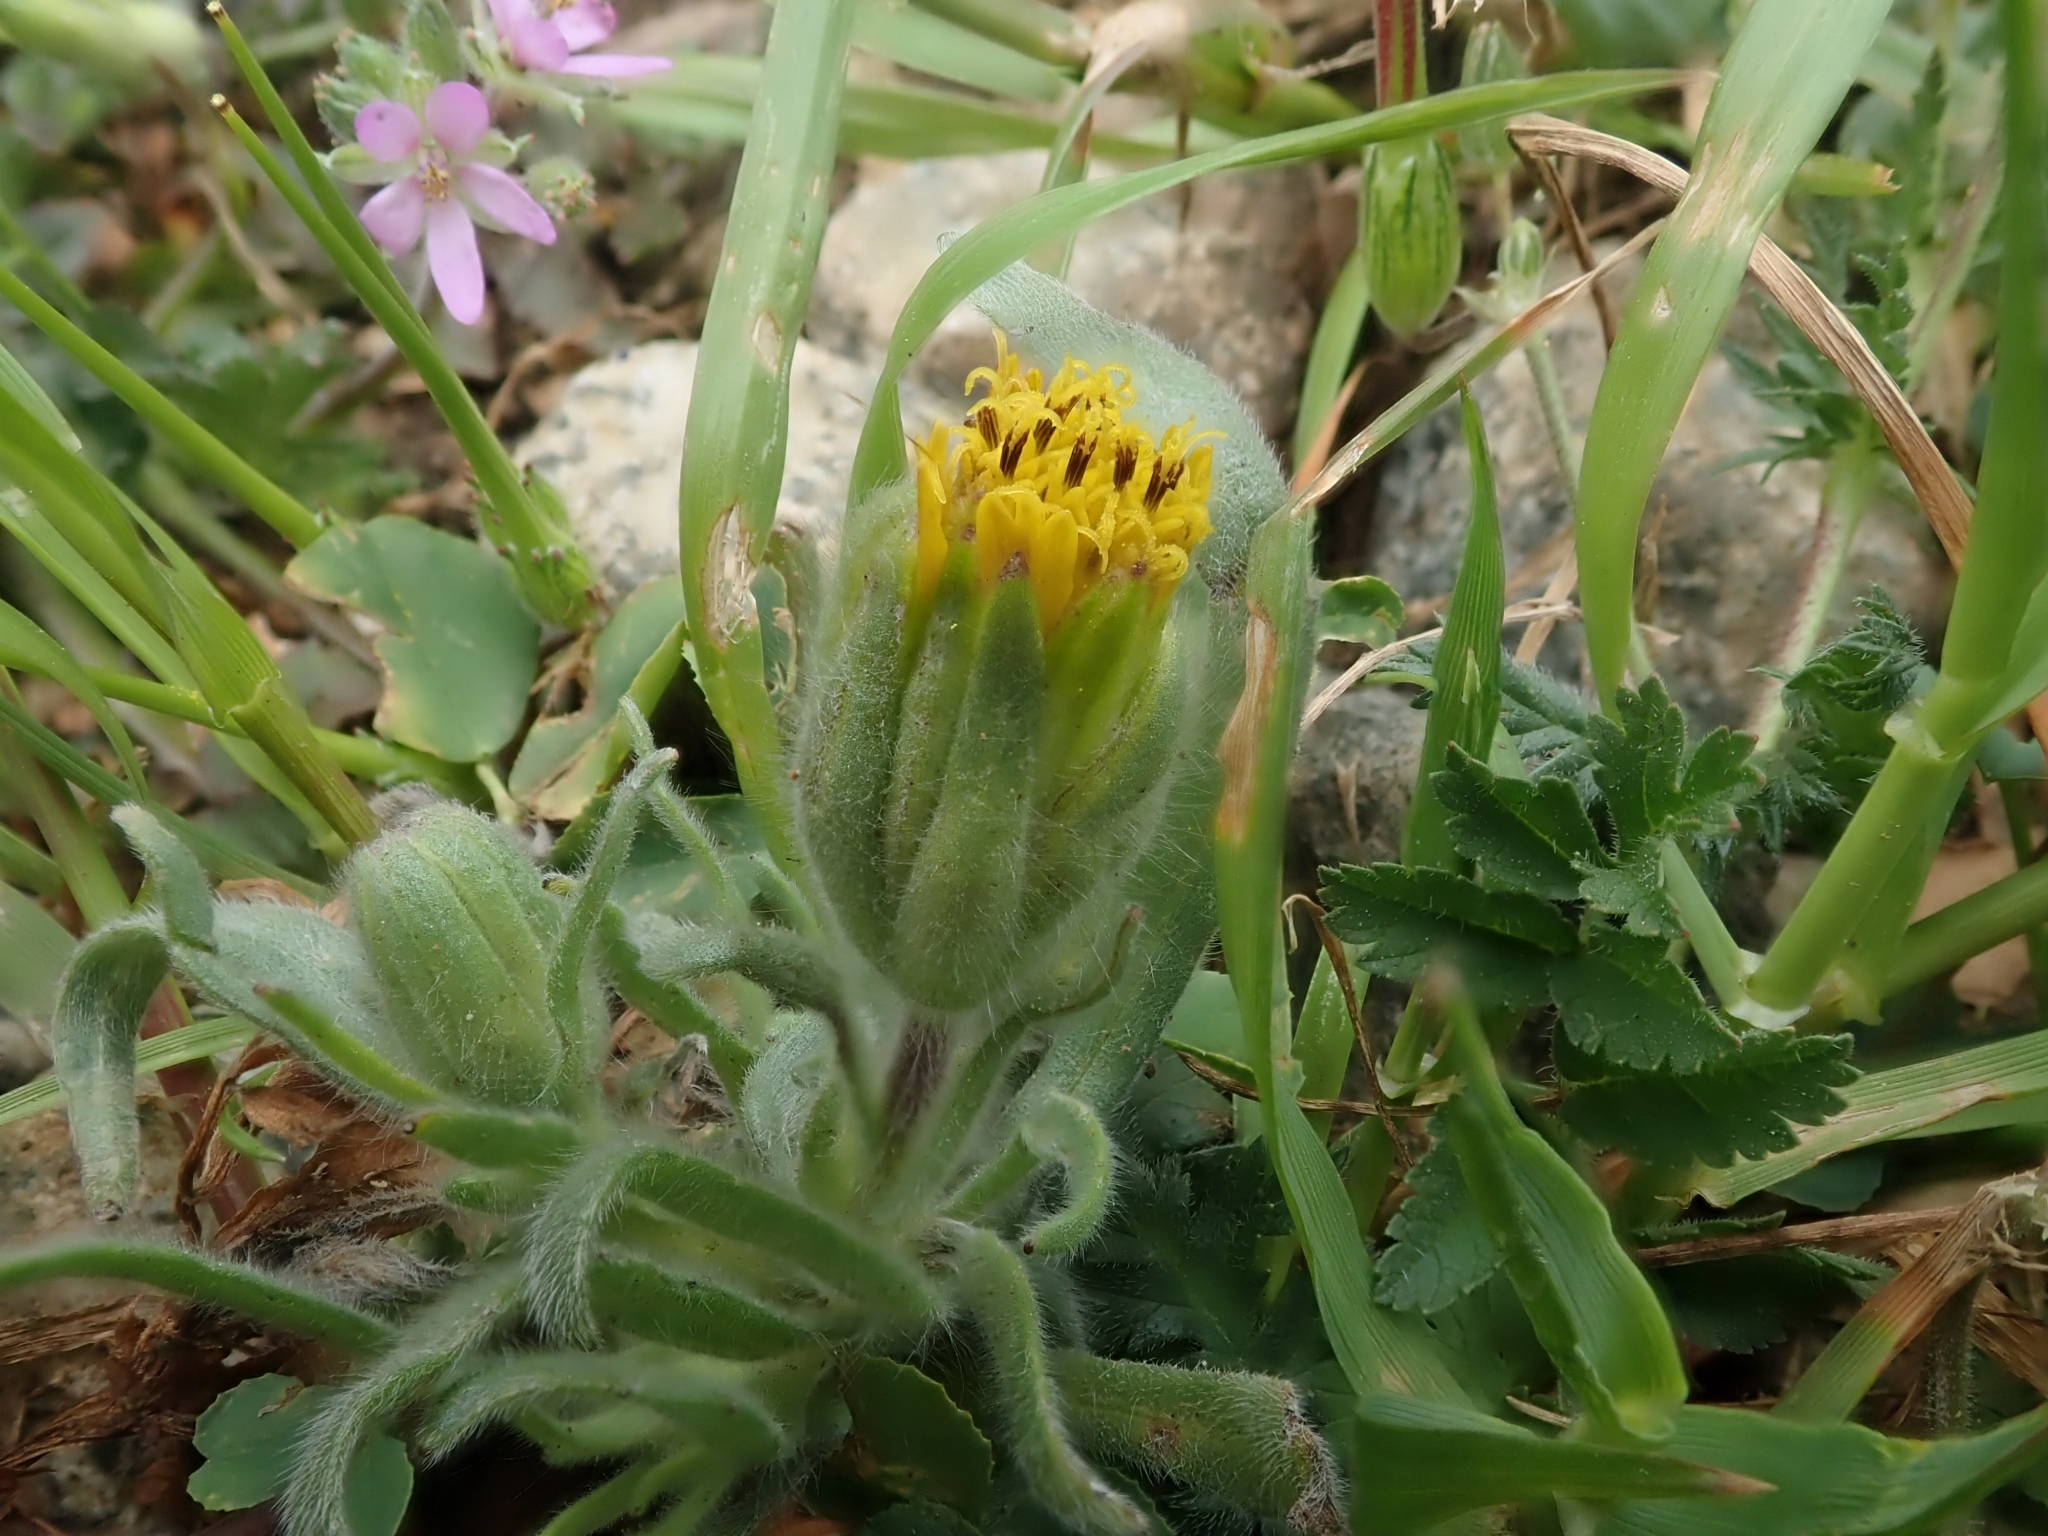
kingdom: Plantae
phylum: Tracheophyta
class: Magnoliopsida
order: Asterales
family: Asteraceae
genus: Achyrachaena
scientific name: Achyrachaena mollis
